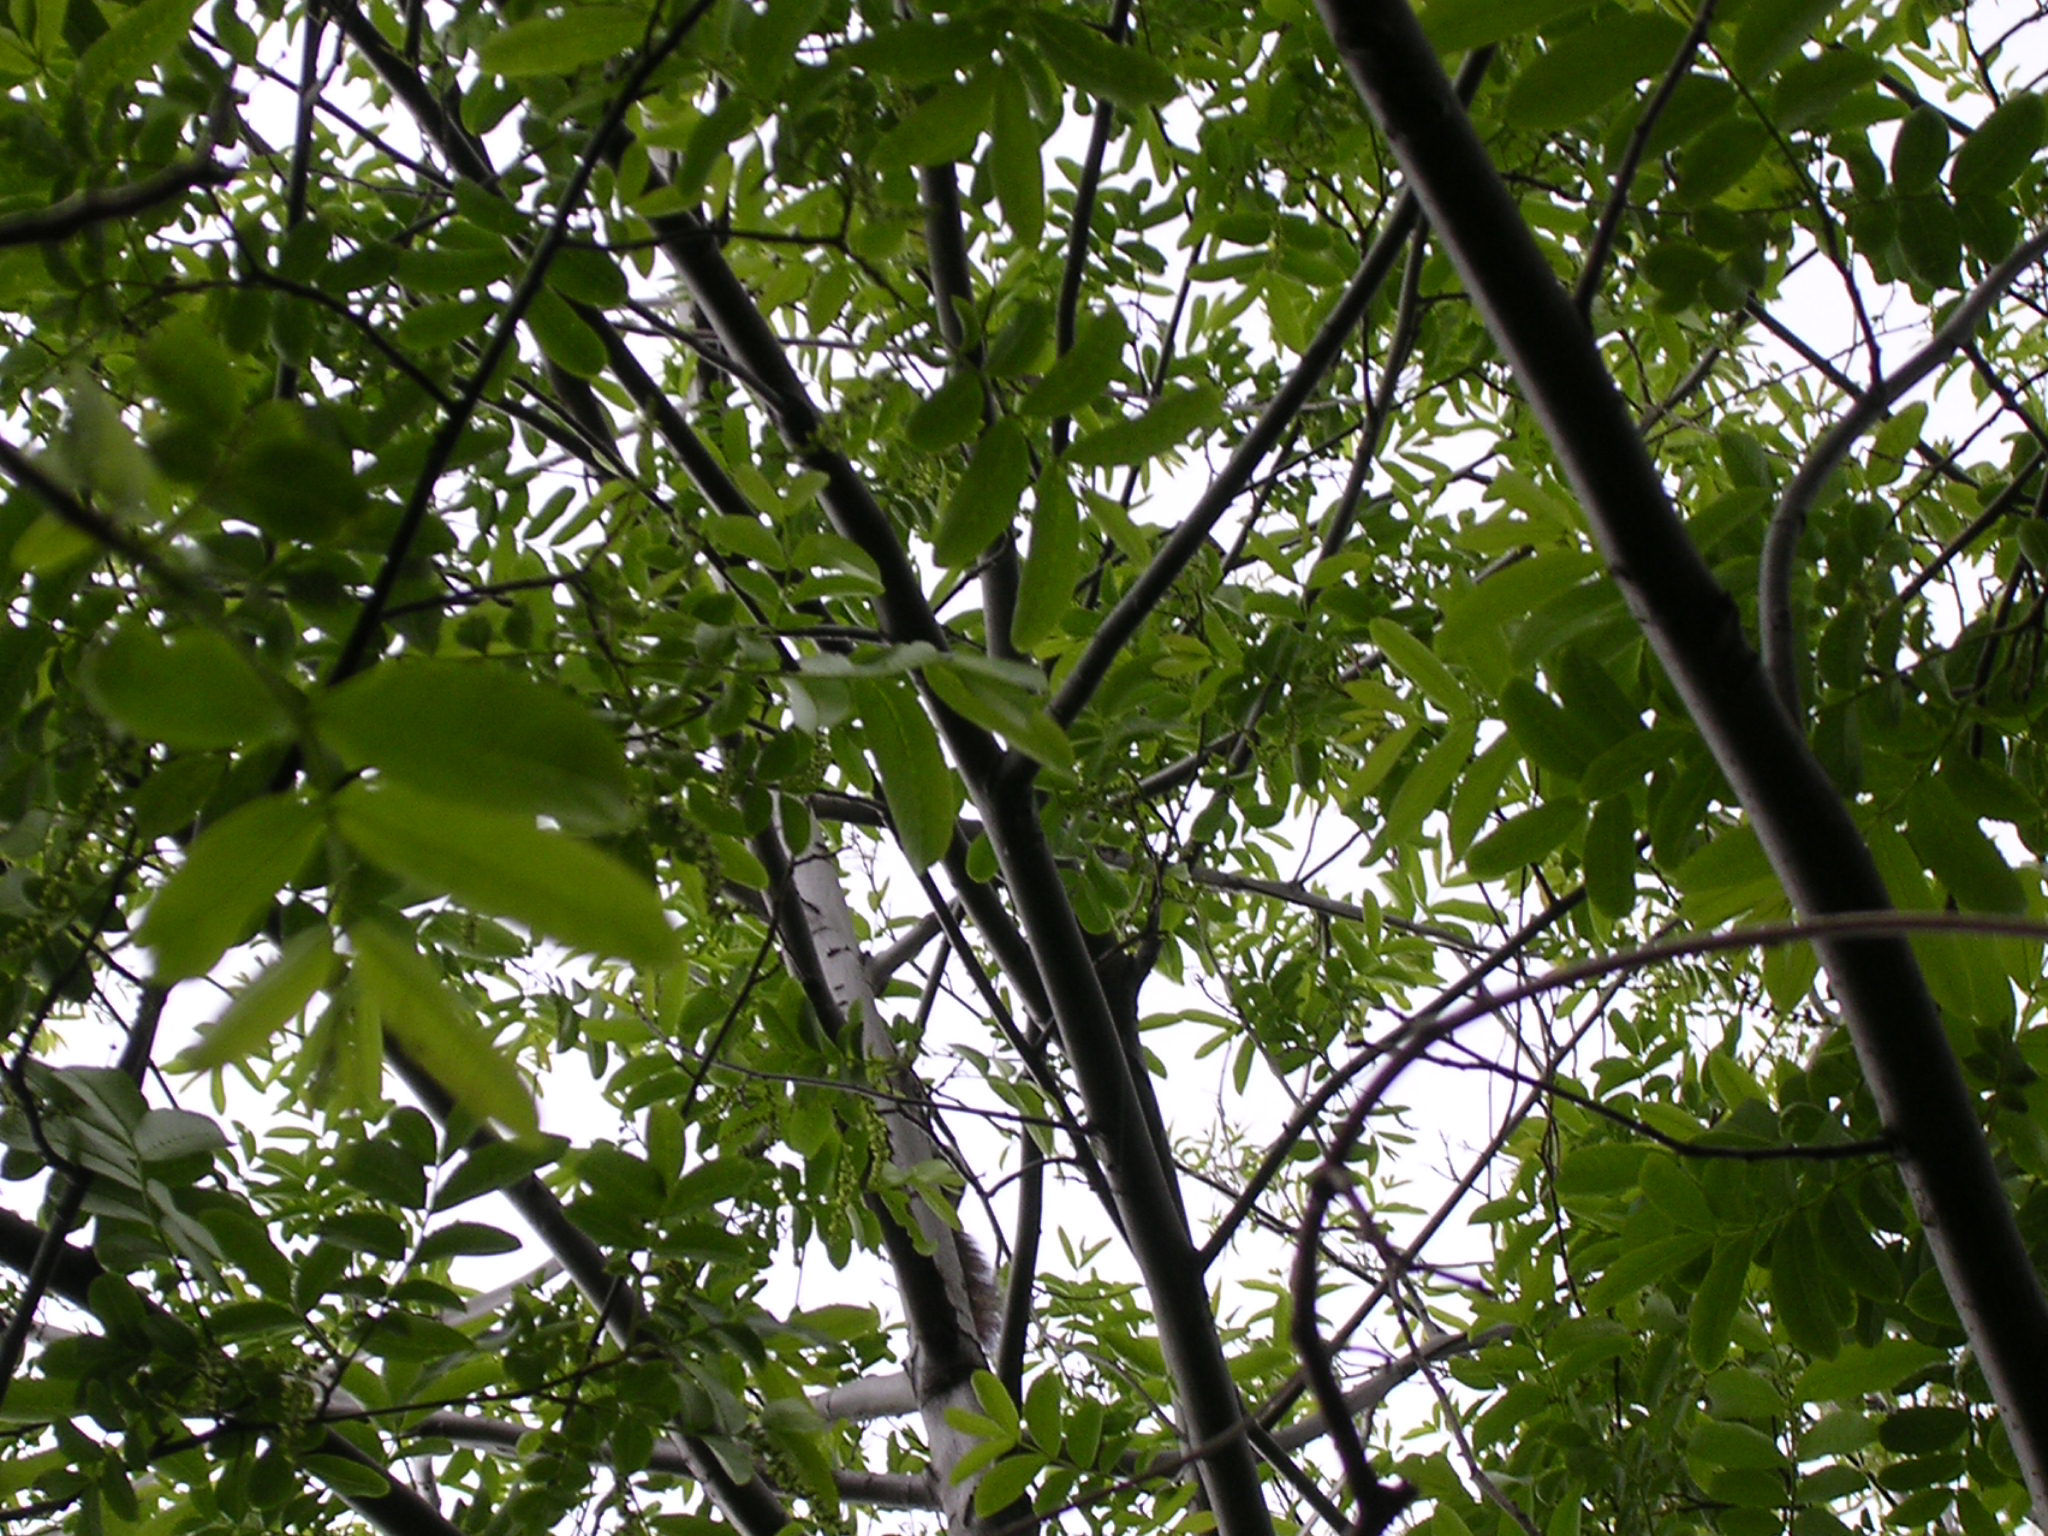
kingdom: Animalia
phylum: Chordata
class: Mammalia
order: Rodentia
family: Sciuridae
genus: Sciurus
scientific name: Sciurus carolinensis
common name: Eastern gray squirrel
